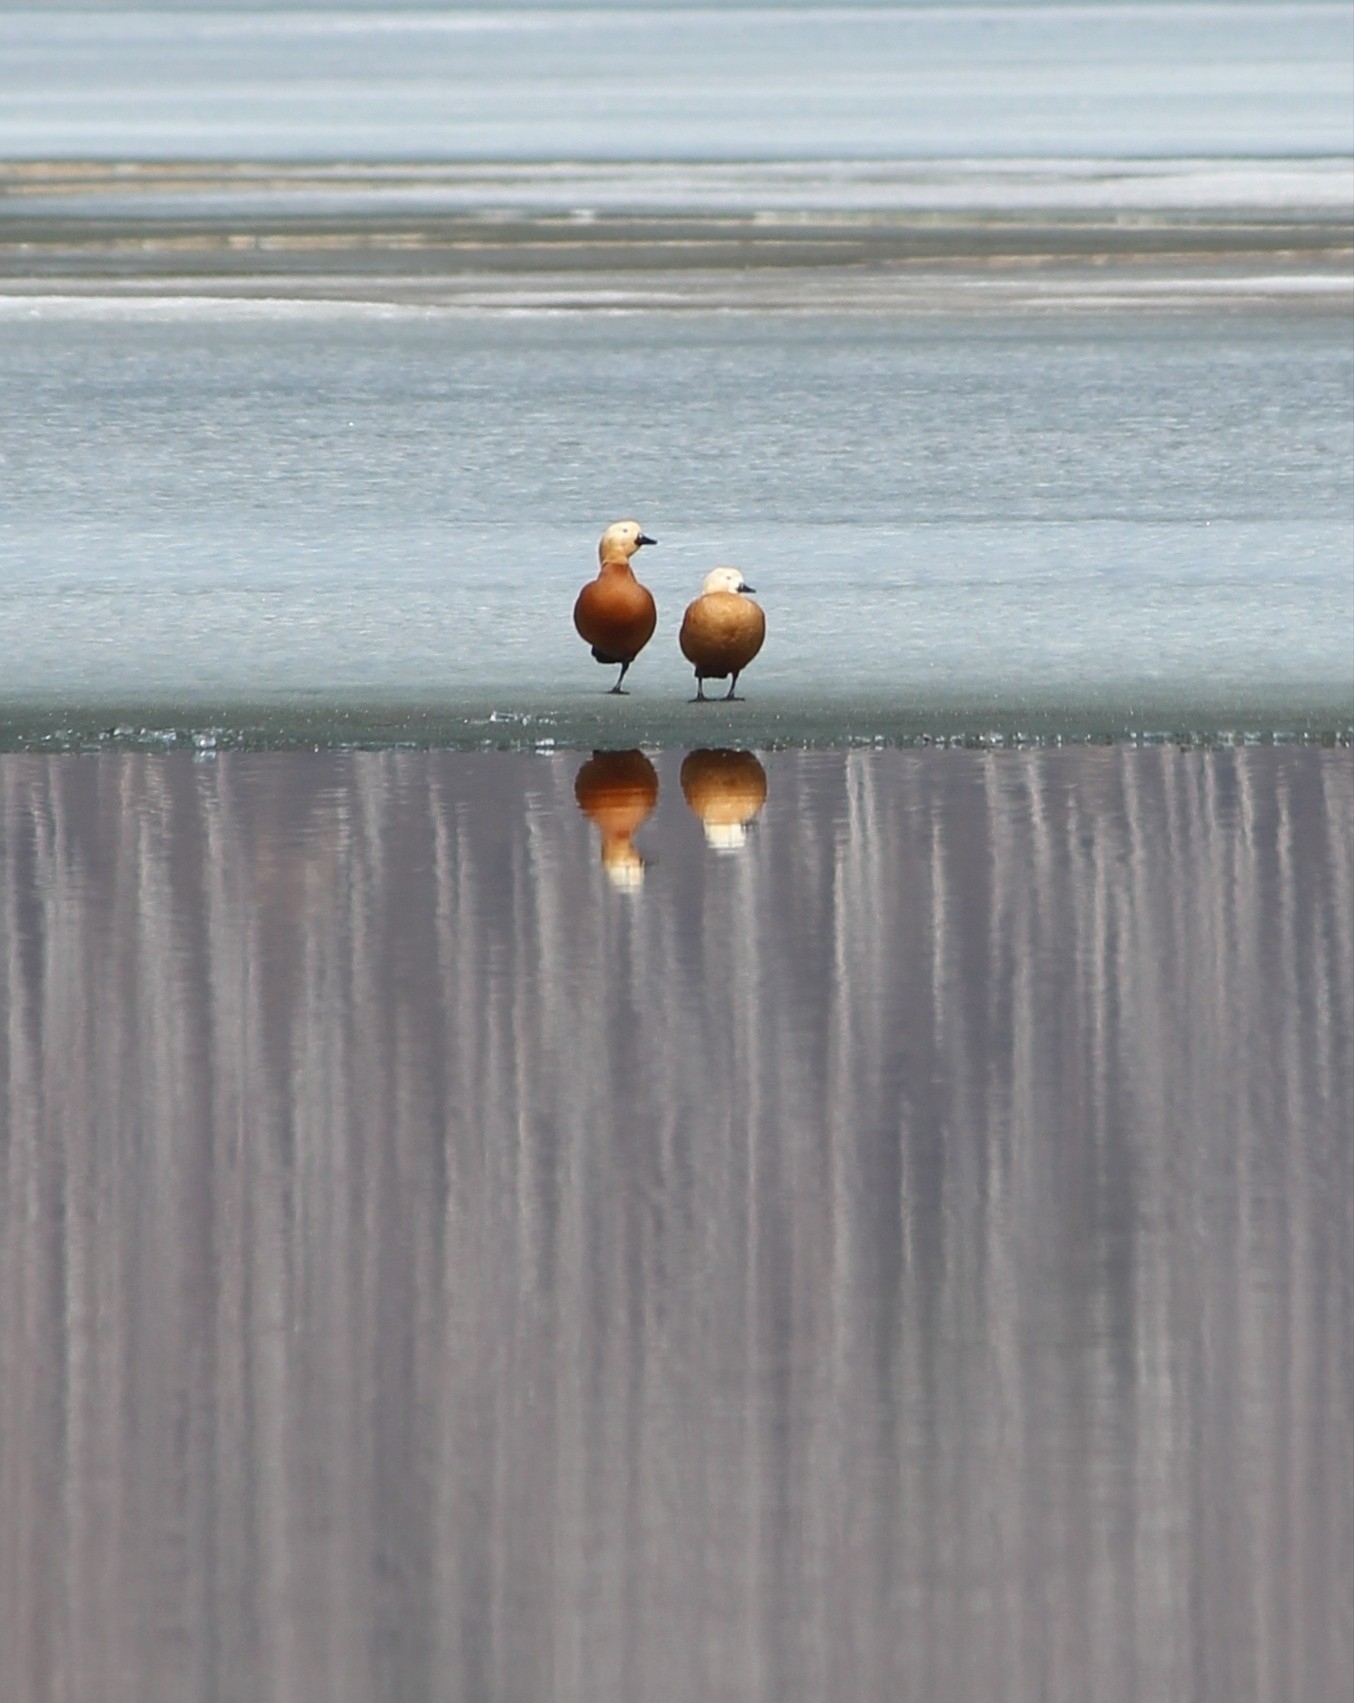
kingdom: Animalia
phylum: Chordata
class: Aves
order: Anseriformes
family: Anatidae
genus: Tadorna
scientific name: Tadorna ferruginea
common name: Ruddy shelduck
